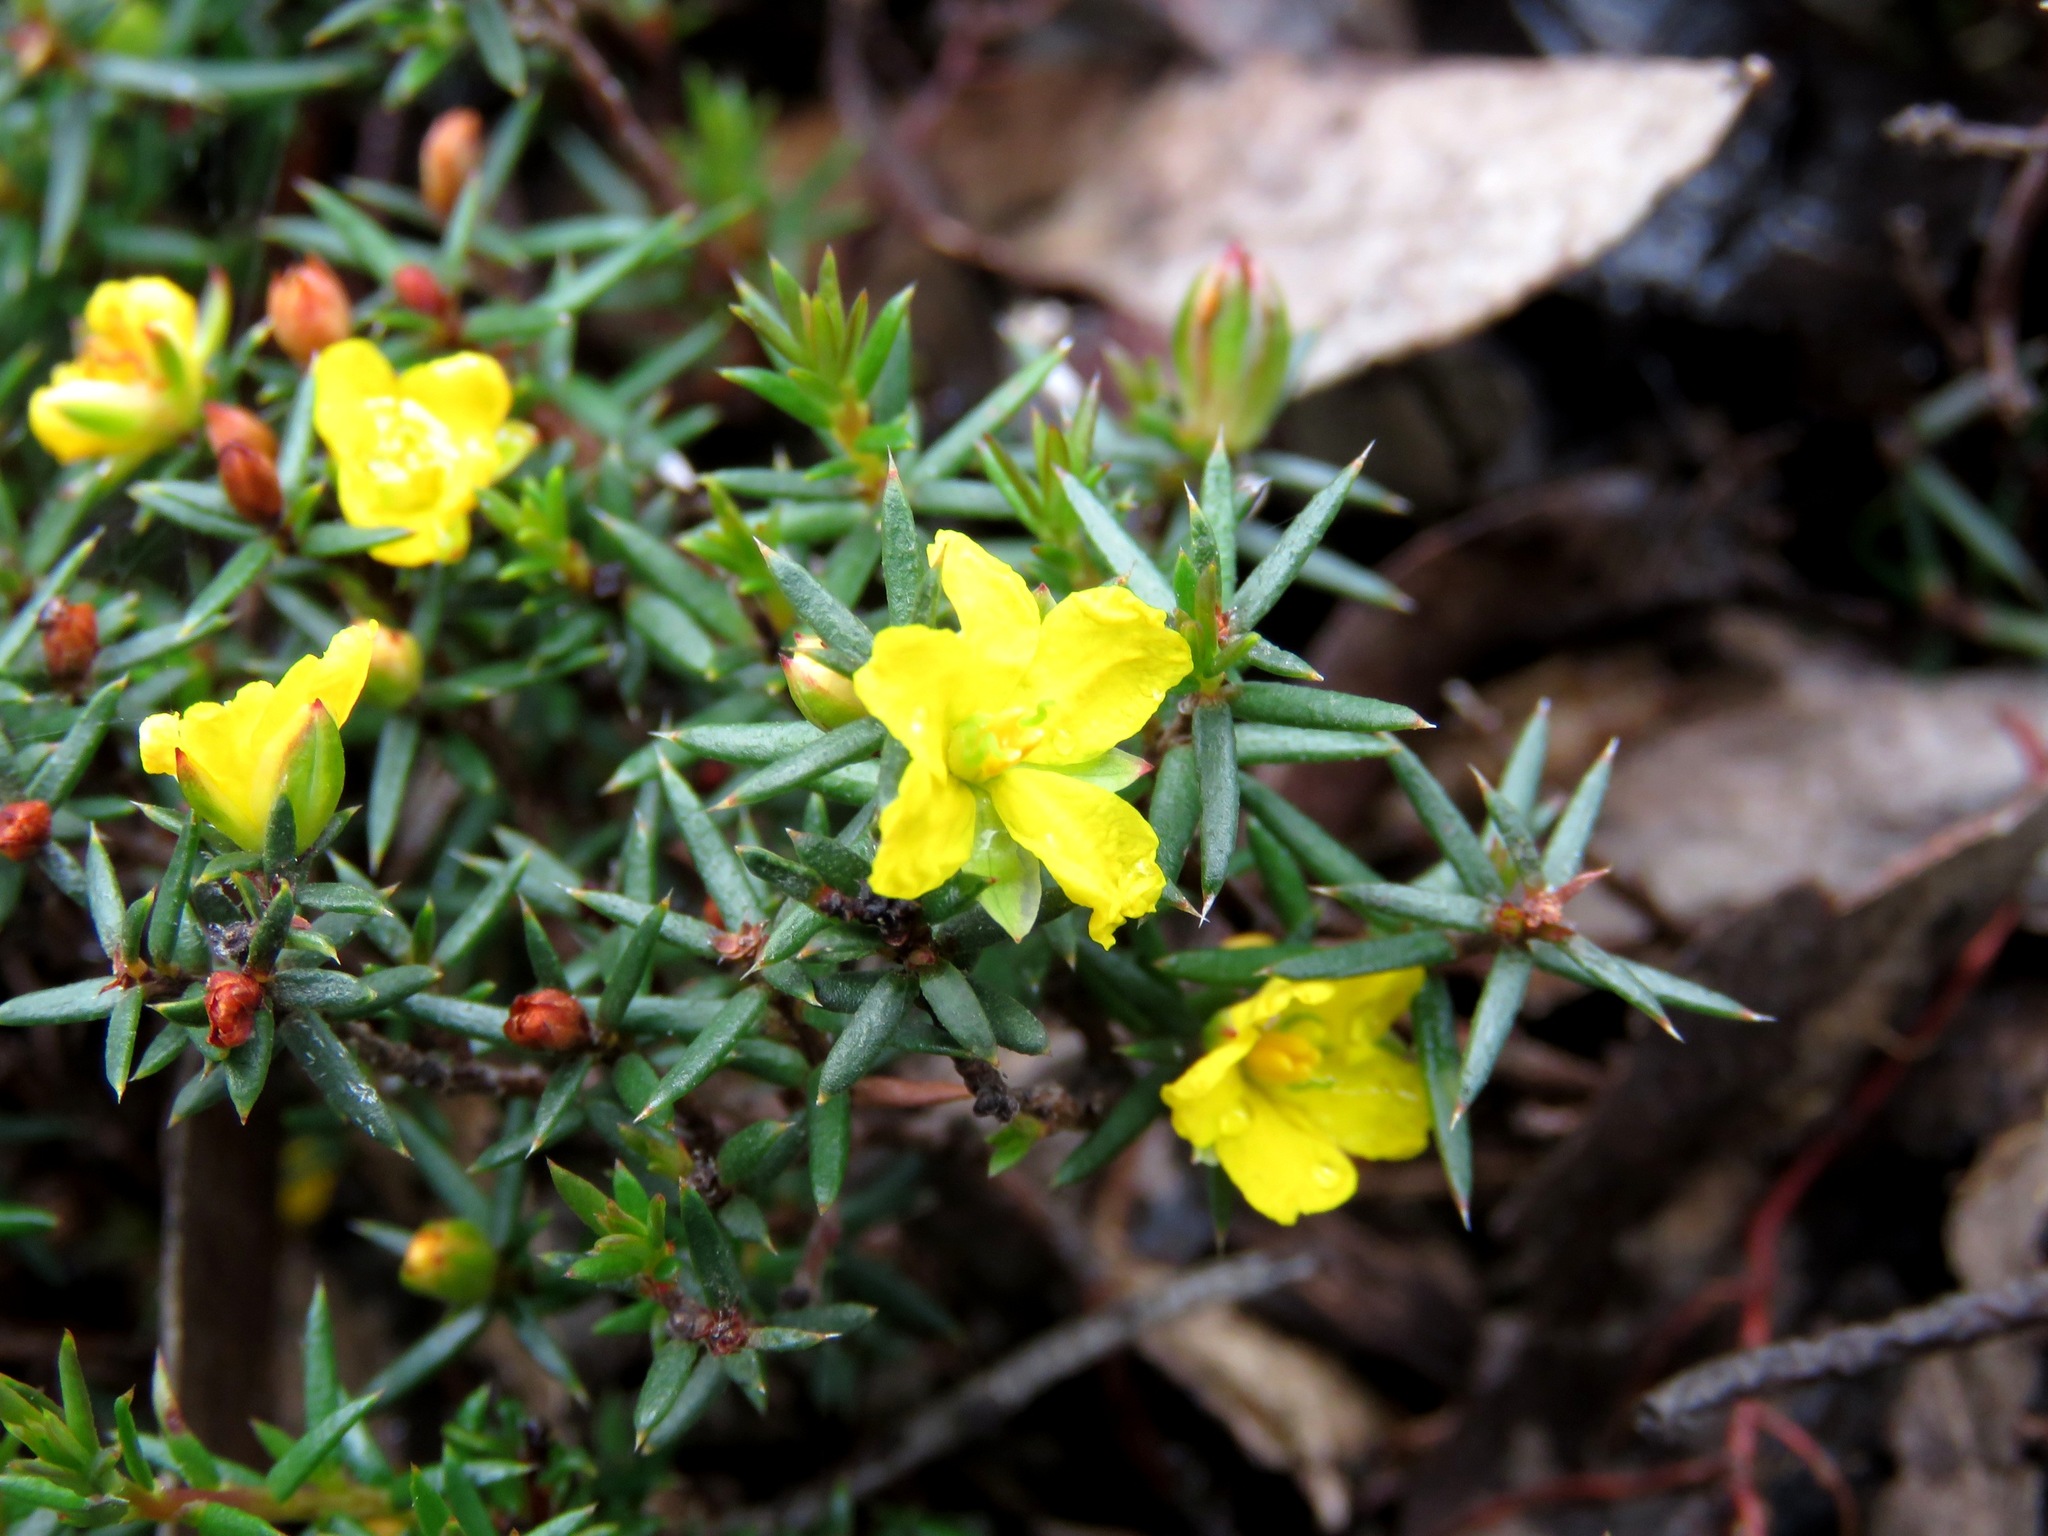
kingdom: Plantae
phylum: Tracheophyta
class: Magnoliopsida
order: Dilleniales
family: Dilleniaceae
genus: Hibbertia
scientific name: Hibbertia exutiacies
